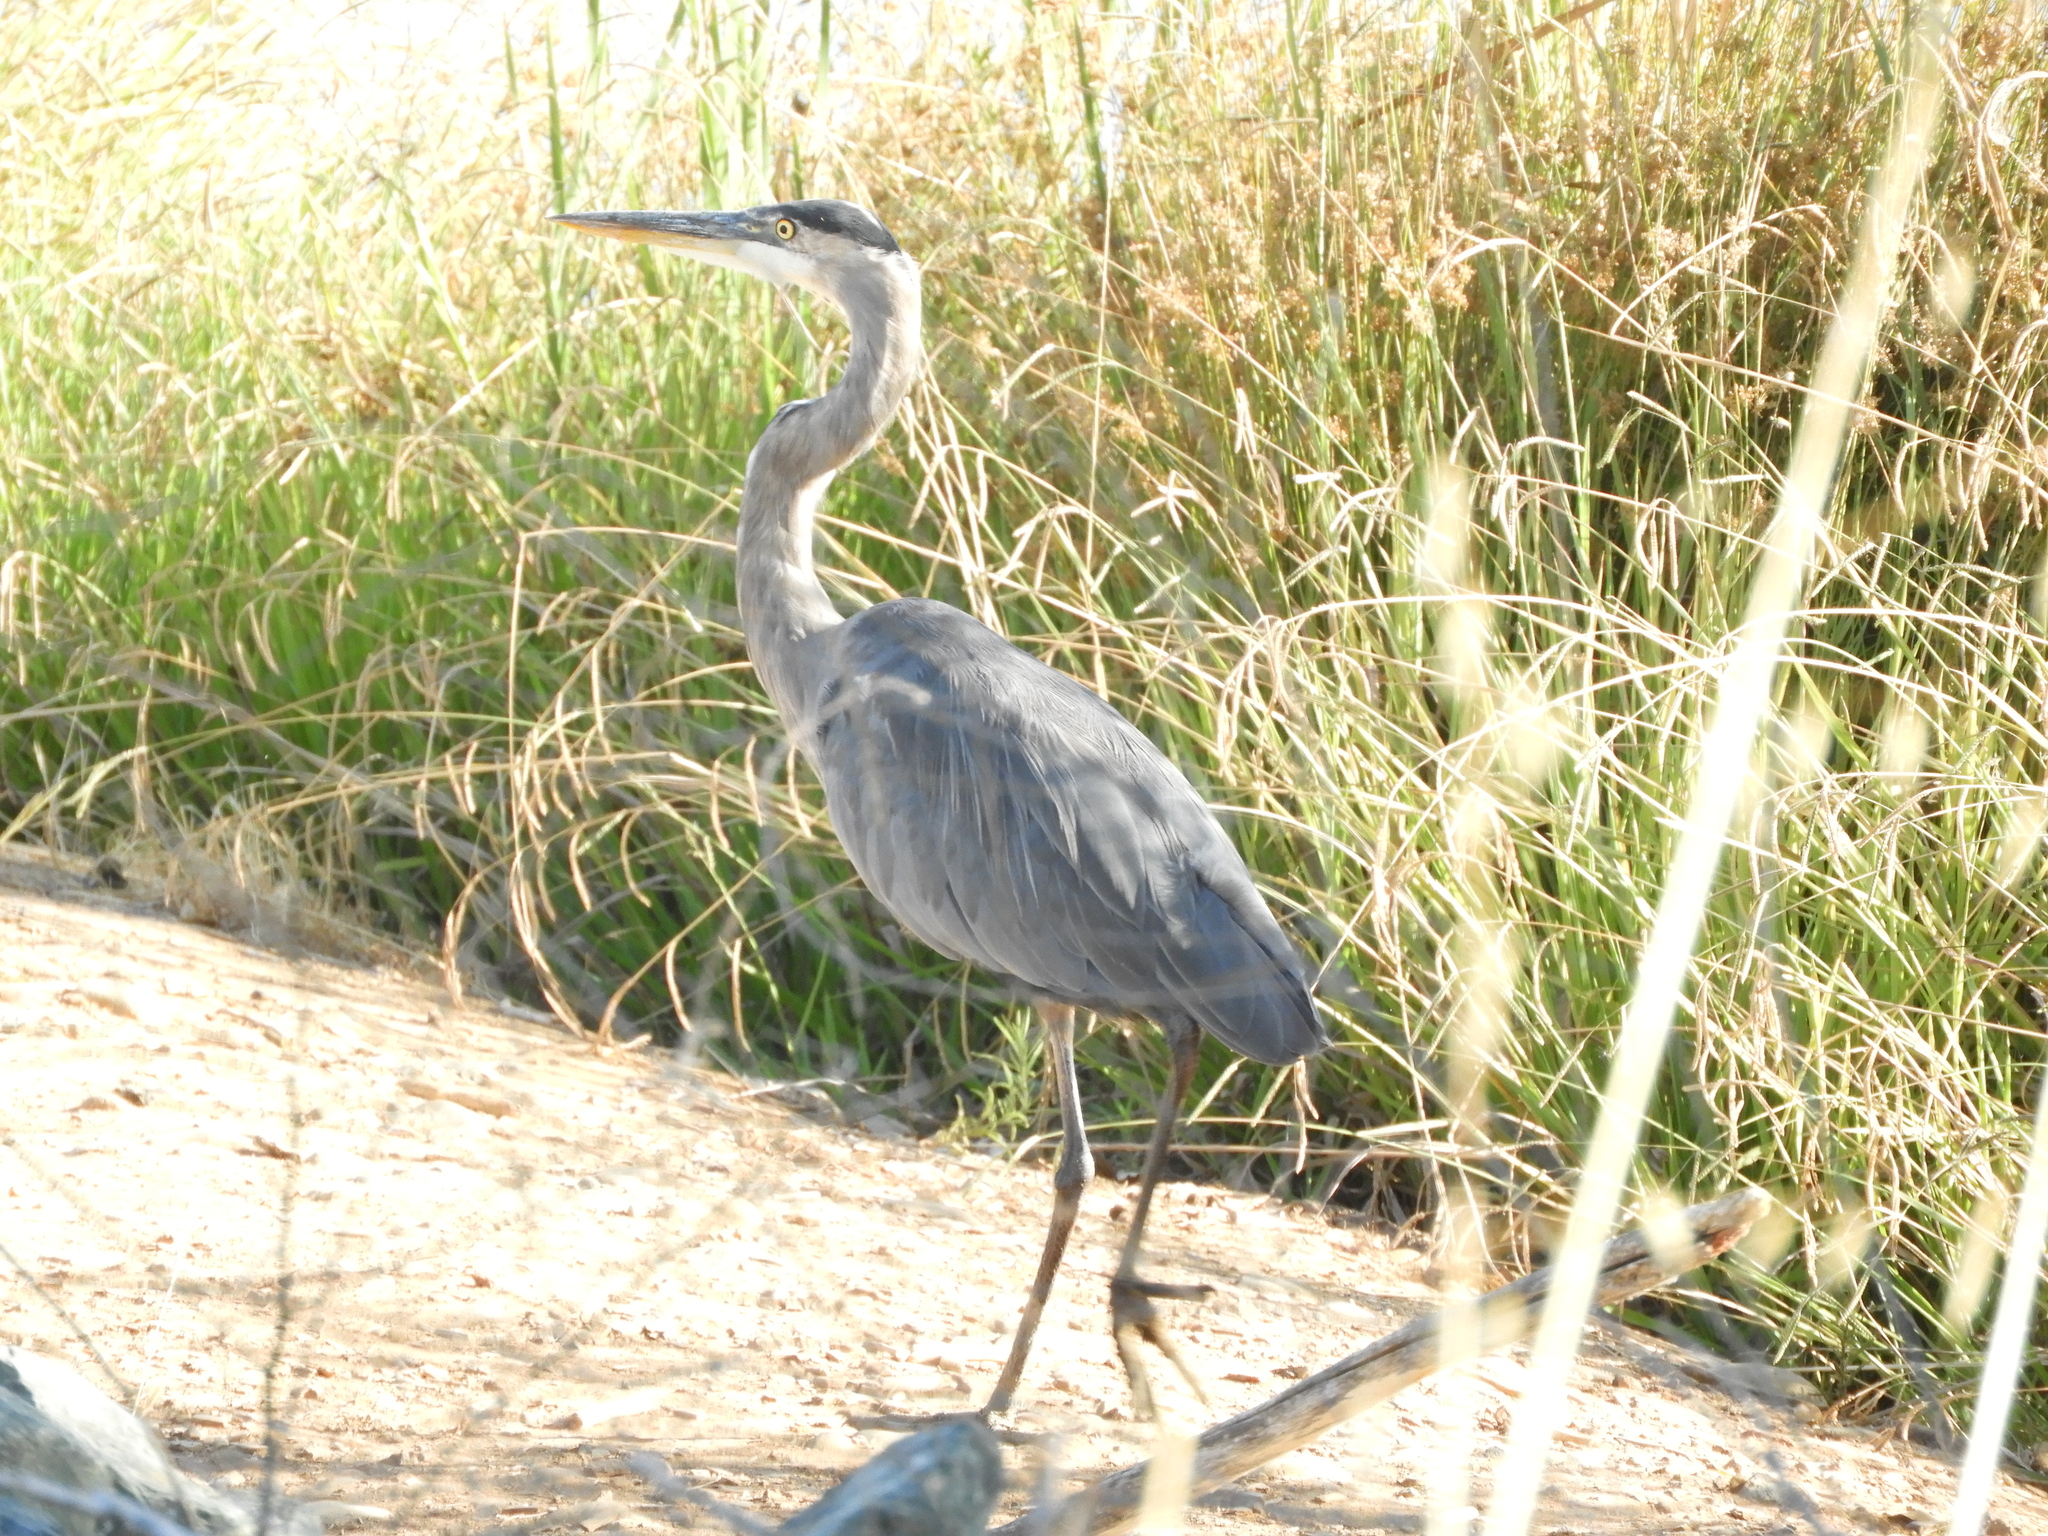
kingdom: Animalia
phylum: Chordata
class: Aves
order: Pelecaniformes
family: Ardeidae
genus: Ardea
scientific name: Ardea herodias
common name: Great blue heron
